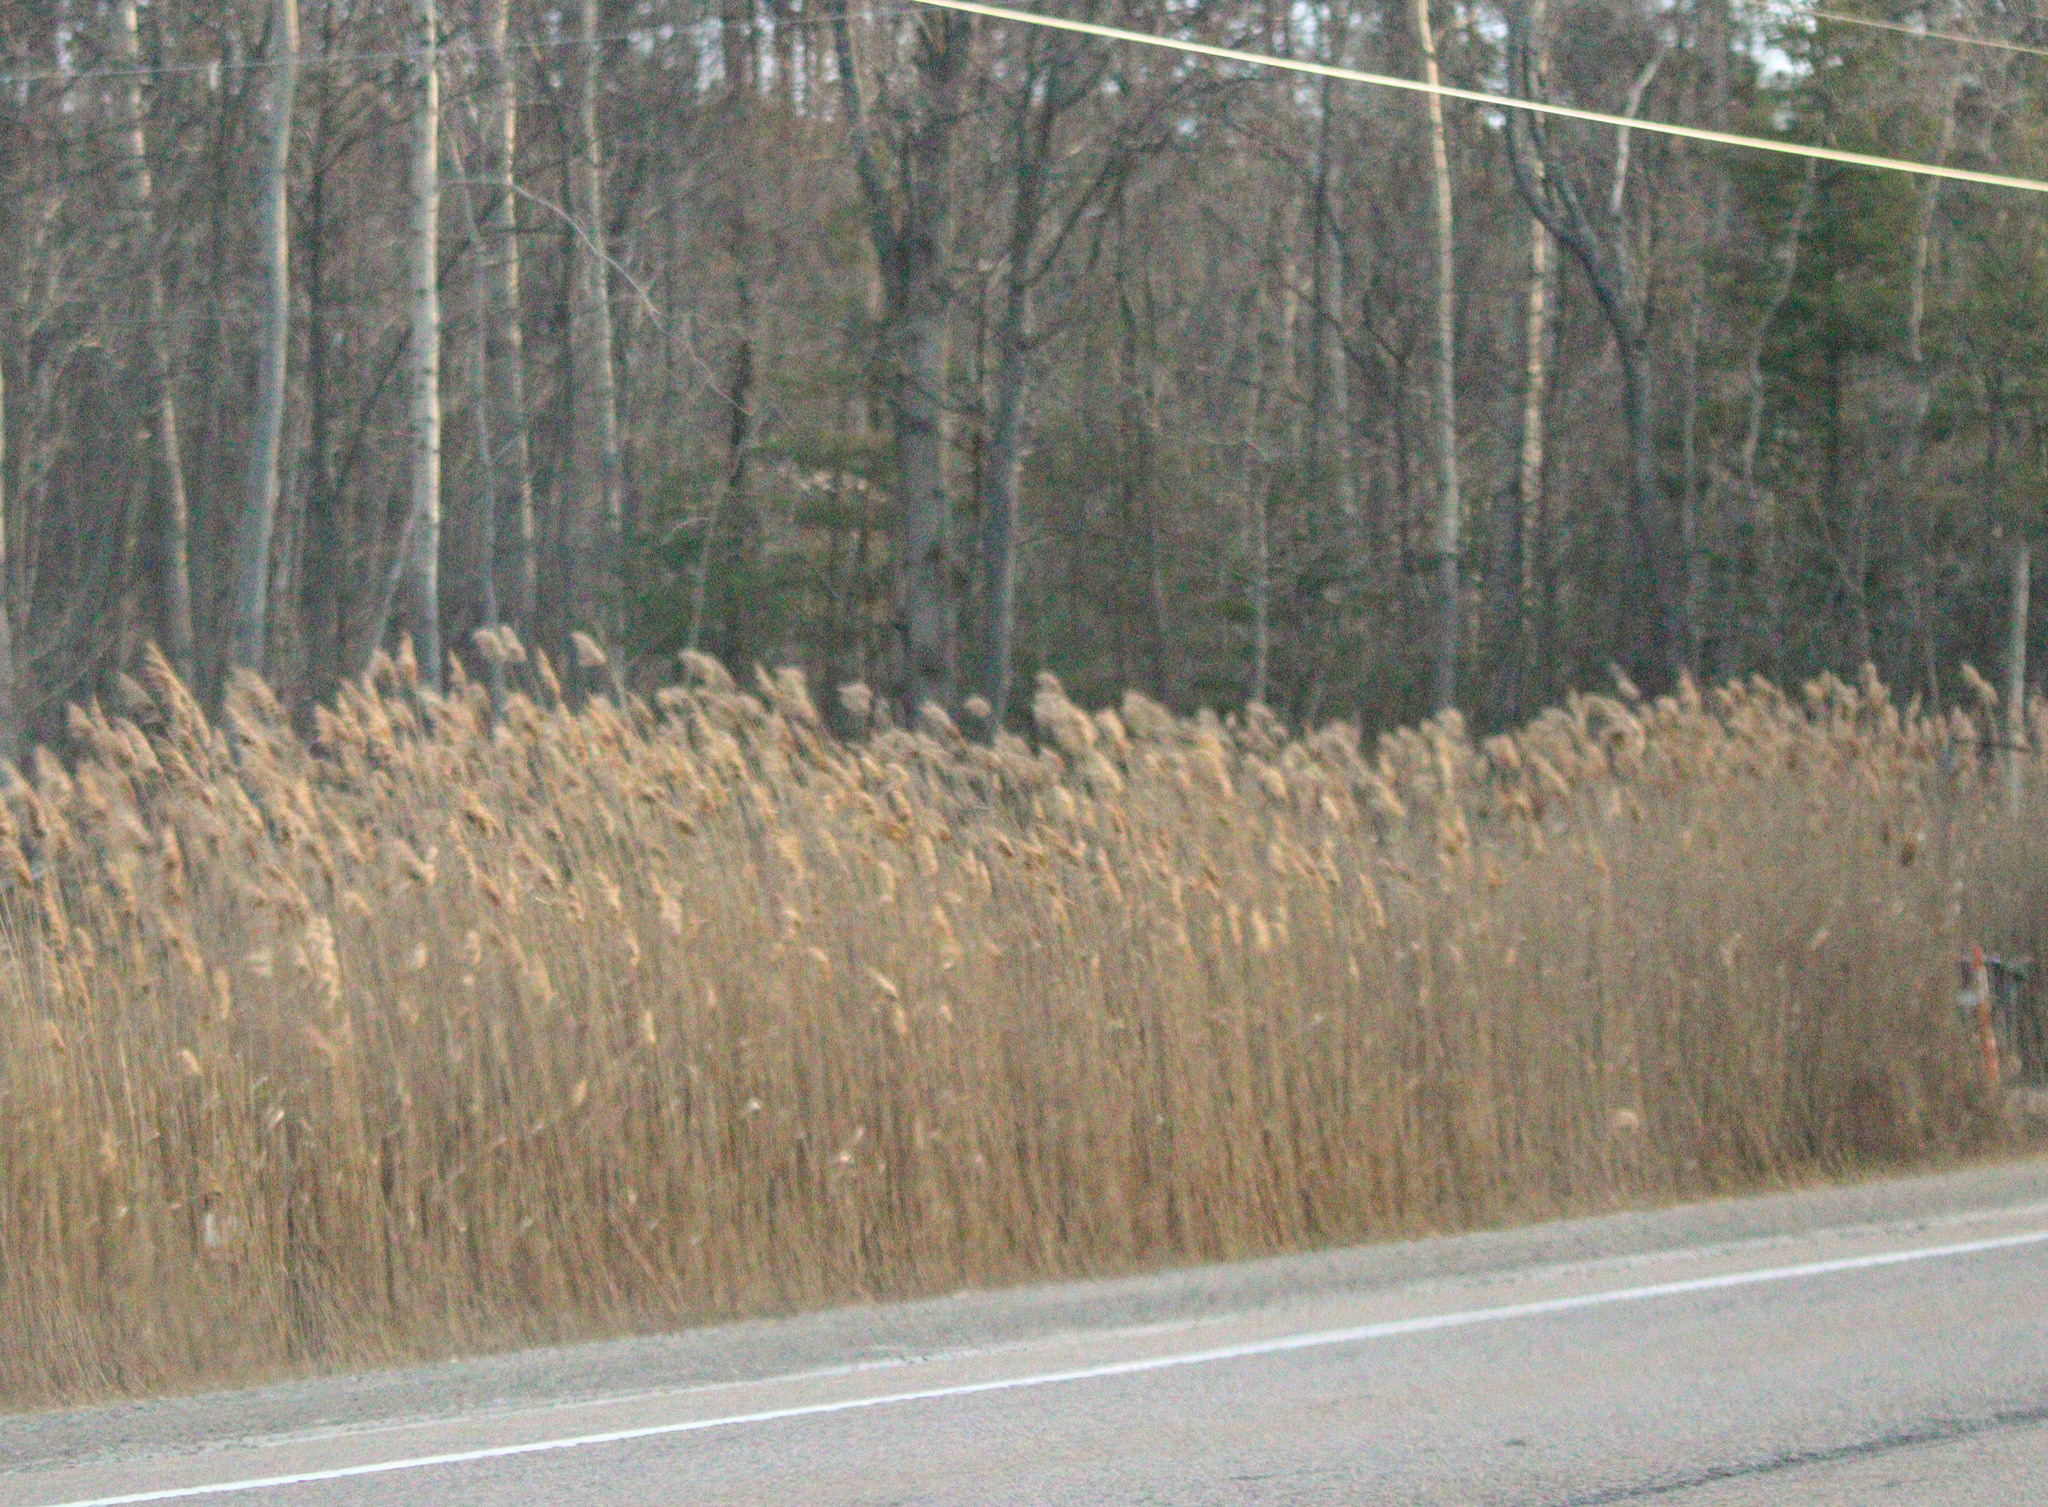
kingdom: Plantae
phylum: Tracheophyta
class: Liliopsida
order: Poales
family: Poaceae
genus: Phragmites
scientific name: Phragmites australis
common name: Common reed
